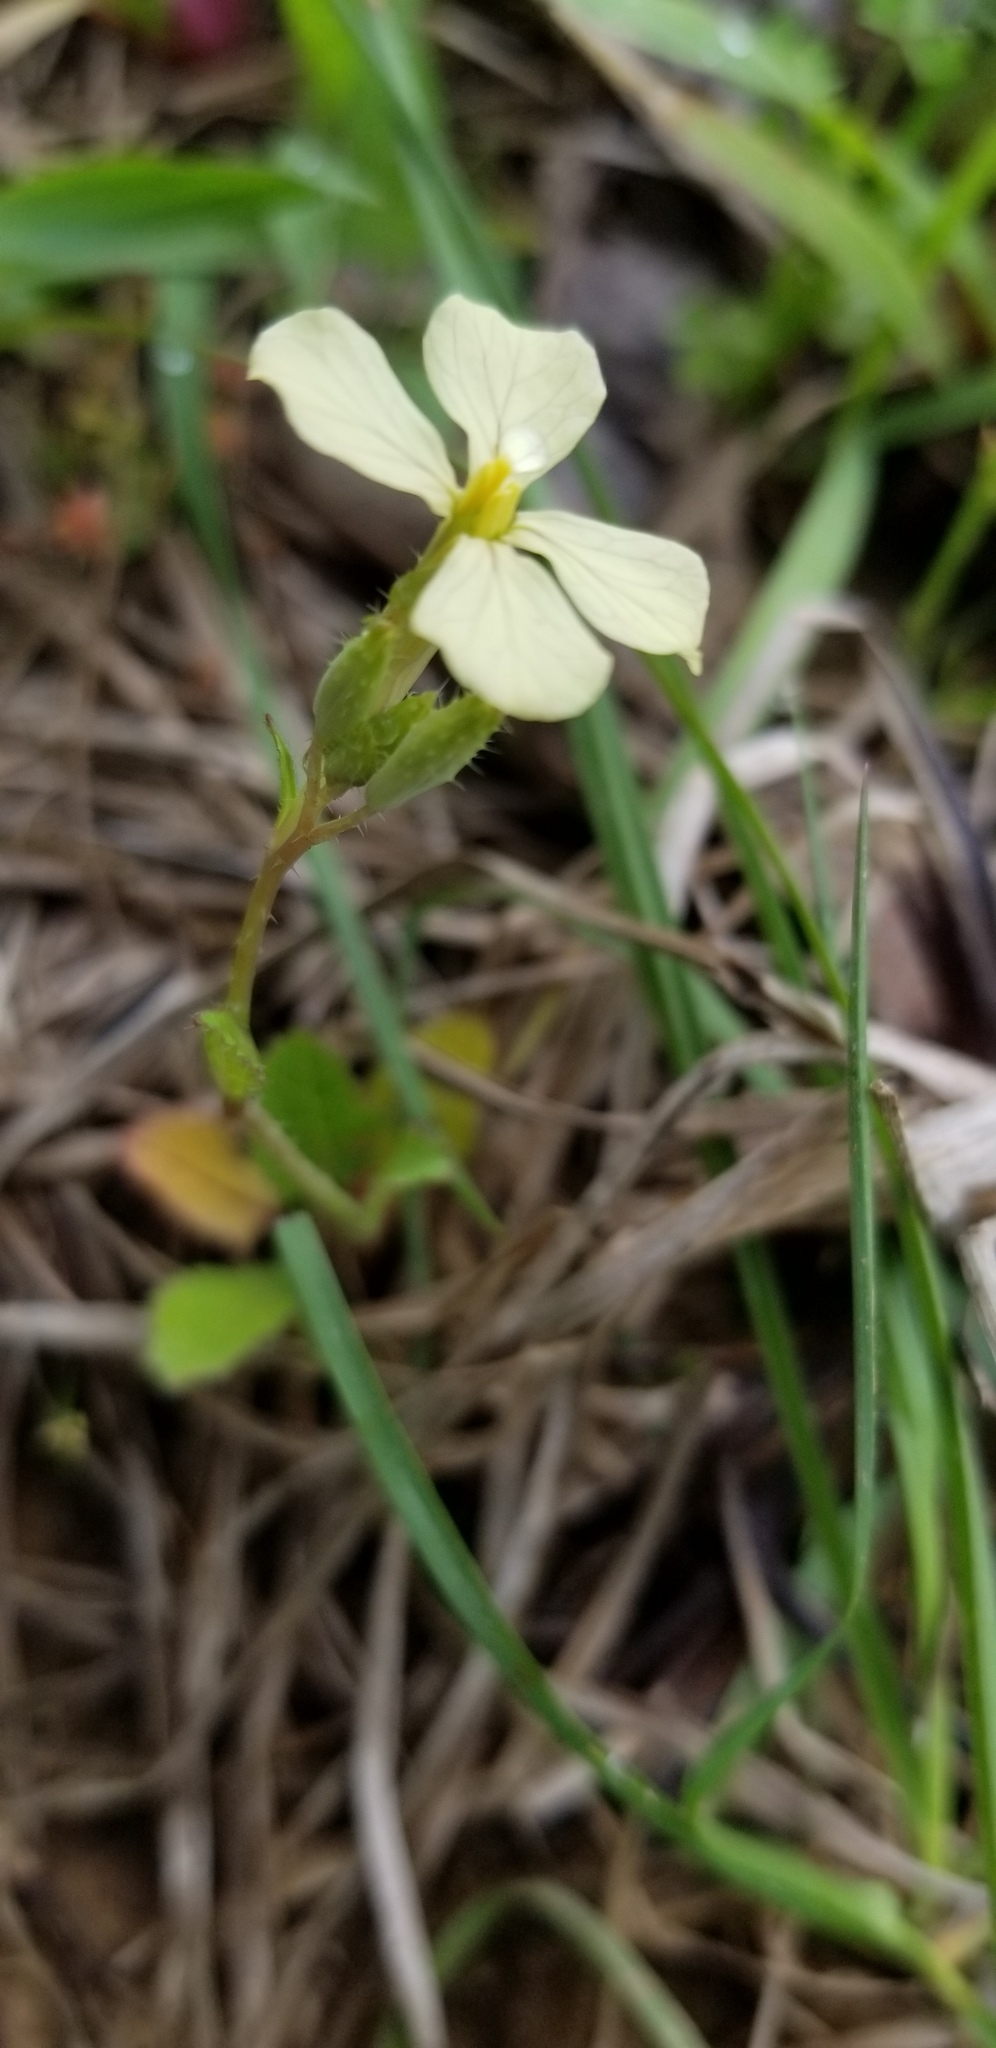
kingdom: Plantae
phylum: Tracheophyta
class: Magnoliopsida
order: Brassicales
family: Brassicaceae
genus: Raphanus
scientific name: Raphanus raphanistrum
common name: Wild radish
